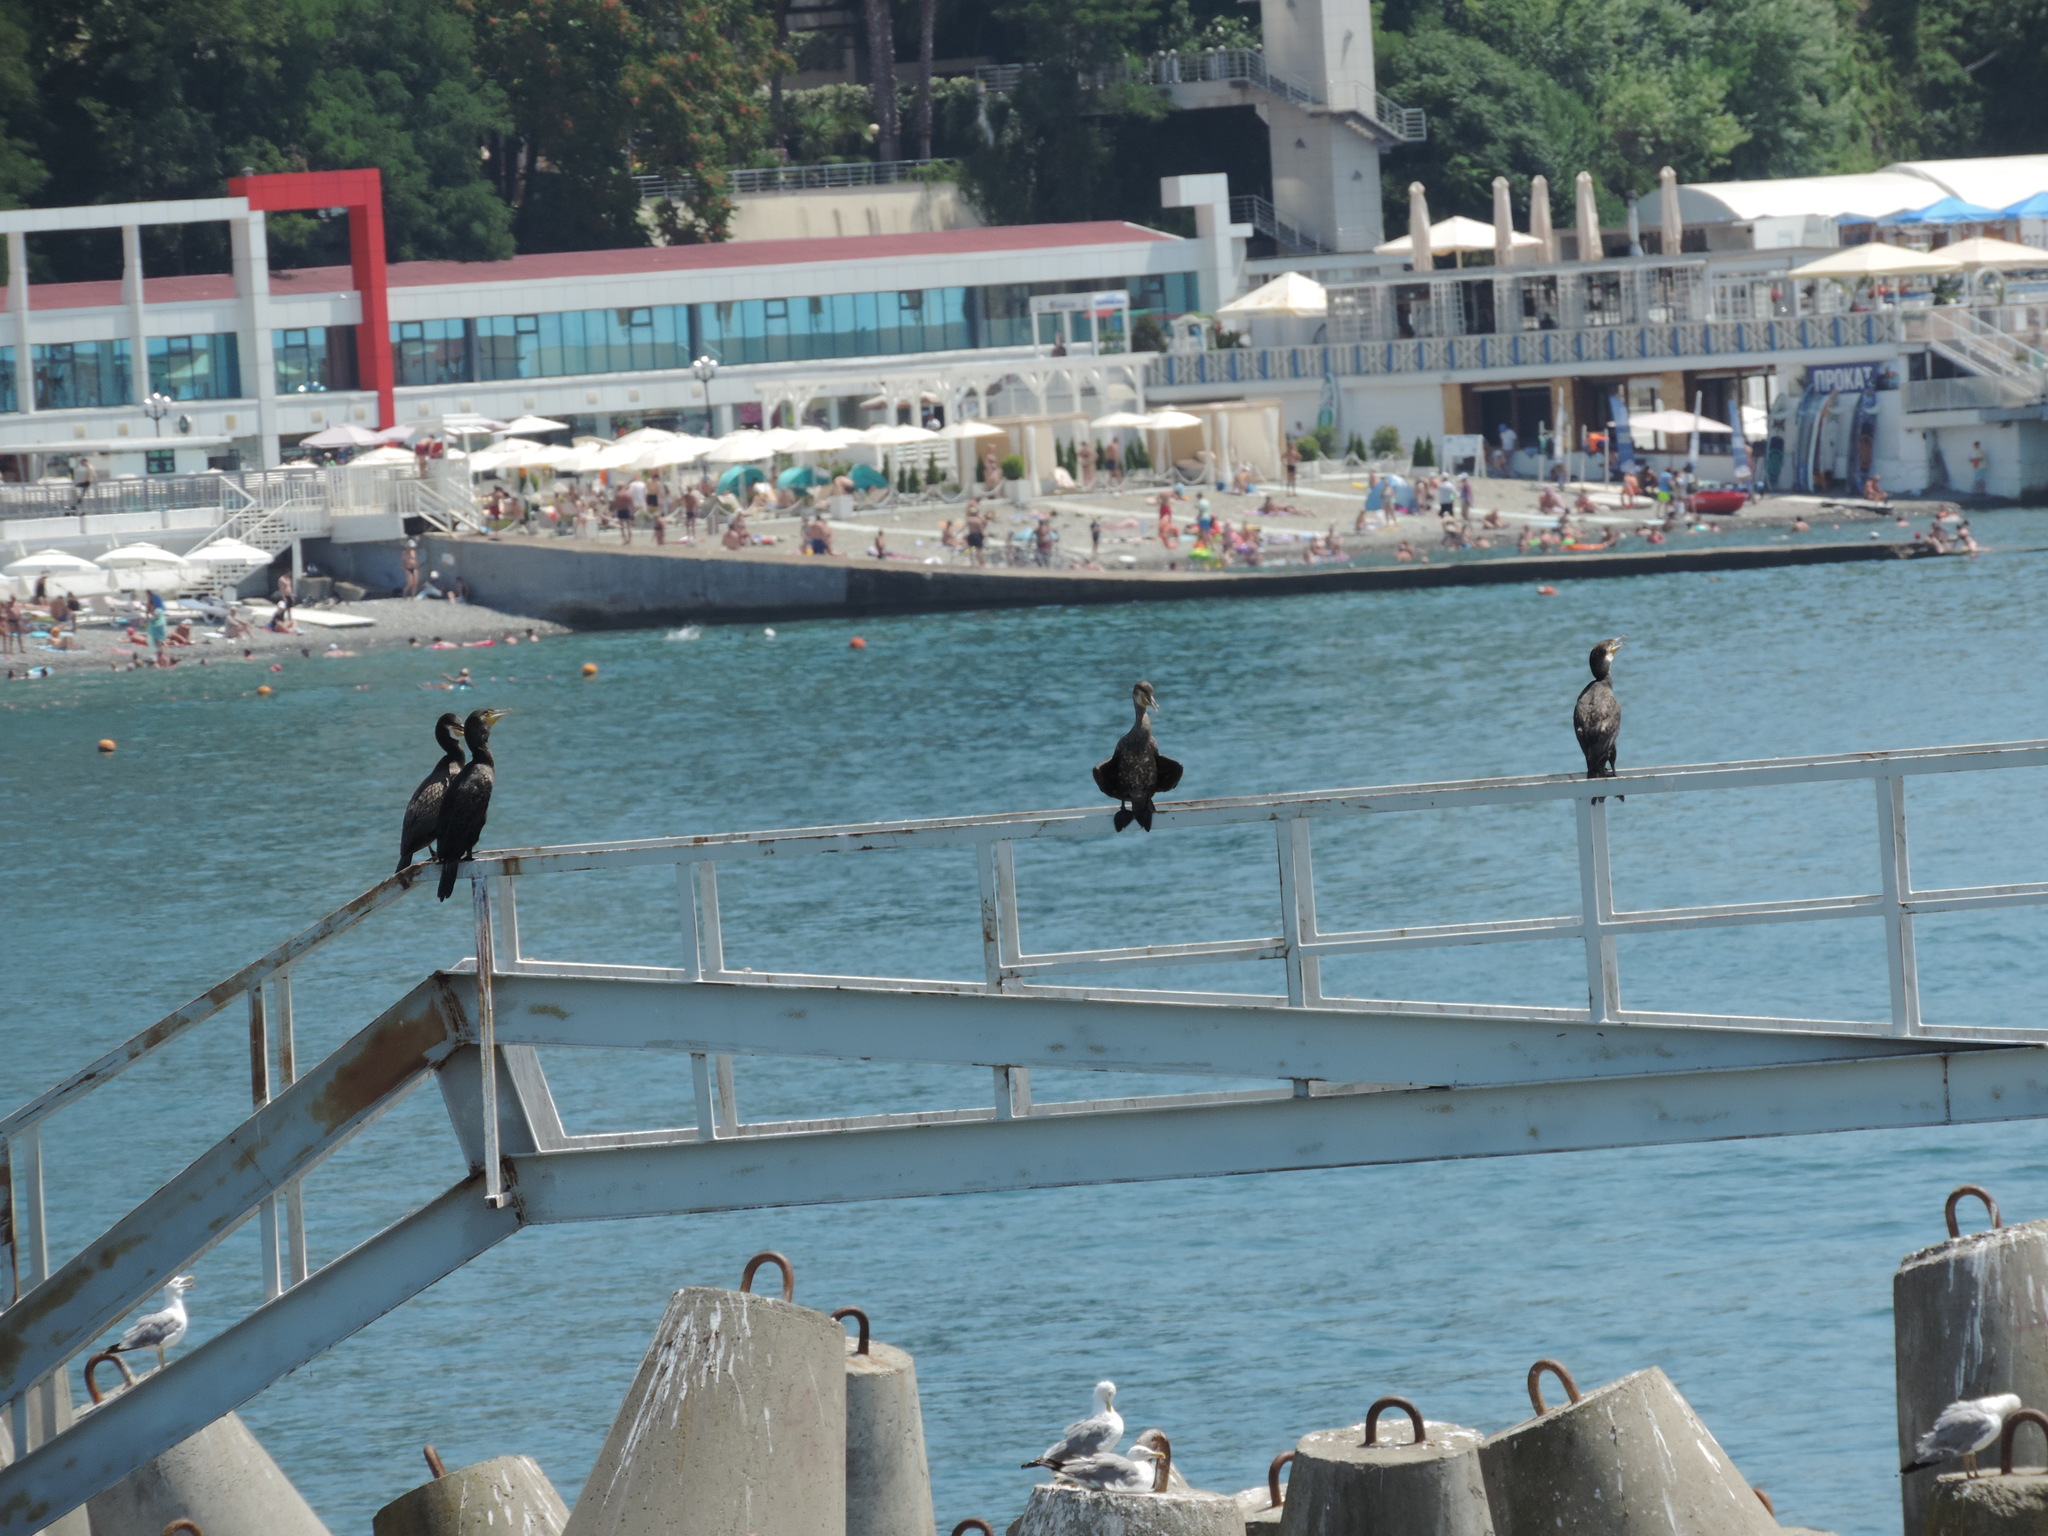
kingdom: Animalia
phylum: Chordata
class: Aves
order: Suliformes
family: Phalacrocoracidae
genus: Phalacrocorax
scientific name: Phalacrocorax carbo
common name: Great cormorant
